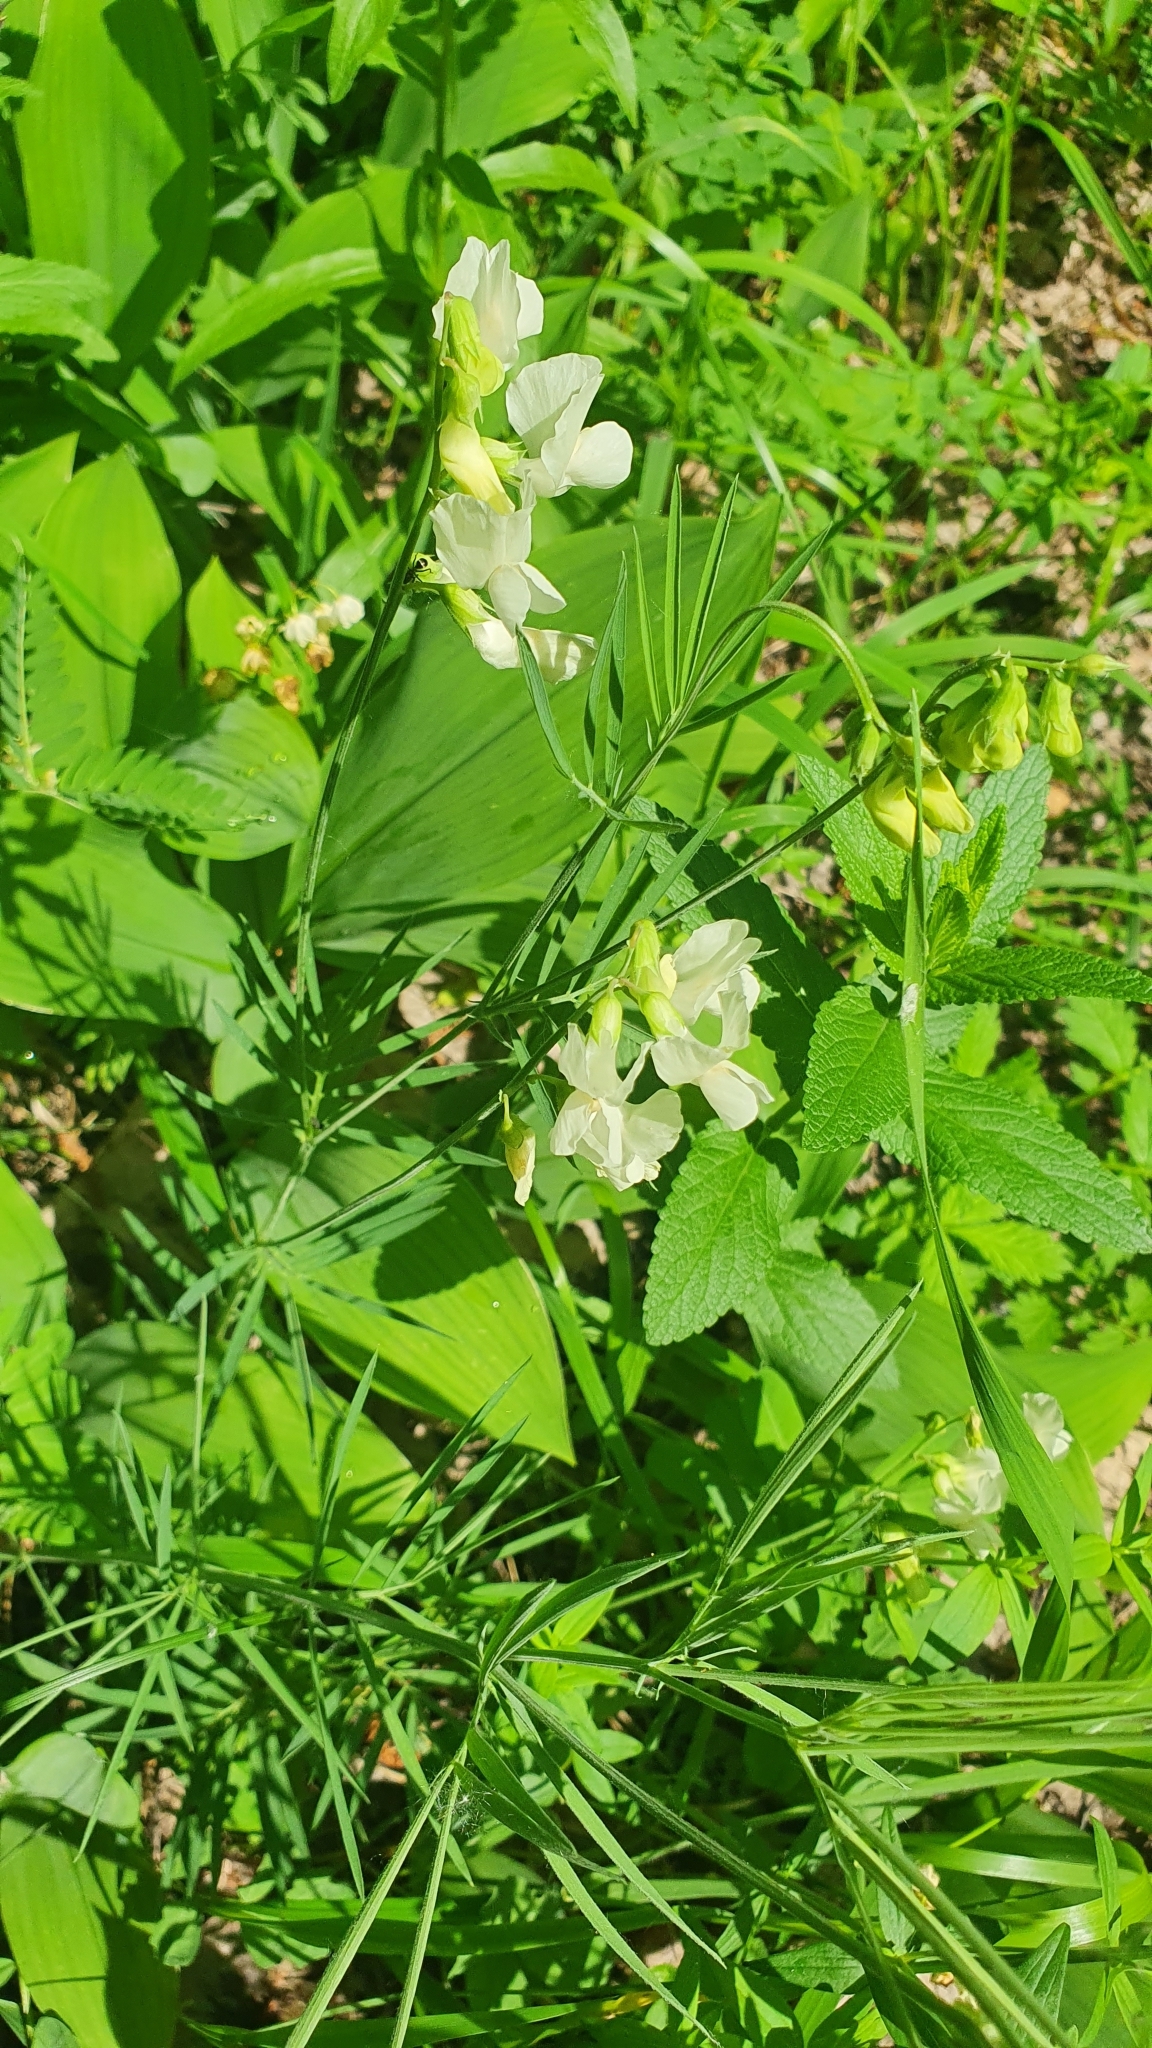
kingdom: Plantae
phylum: Tracheophyta
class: Magnoliopsida
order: Fabales
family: Fabaceae
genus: Lathyrus
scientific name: Lathyrus pallescens
